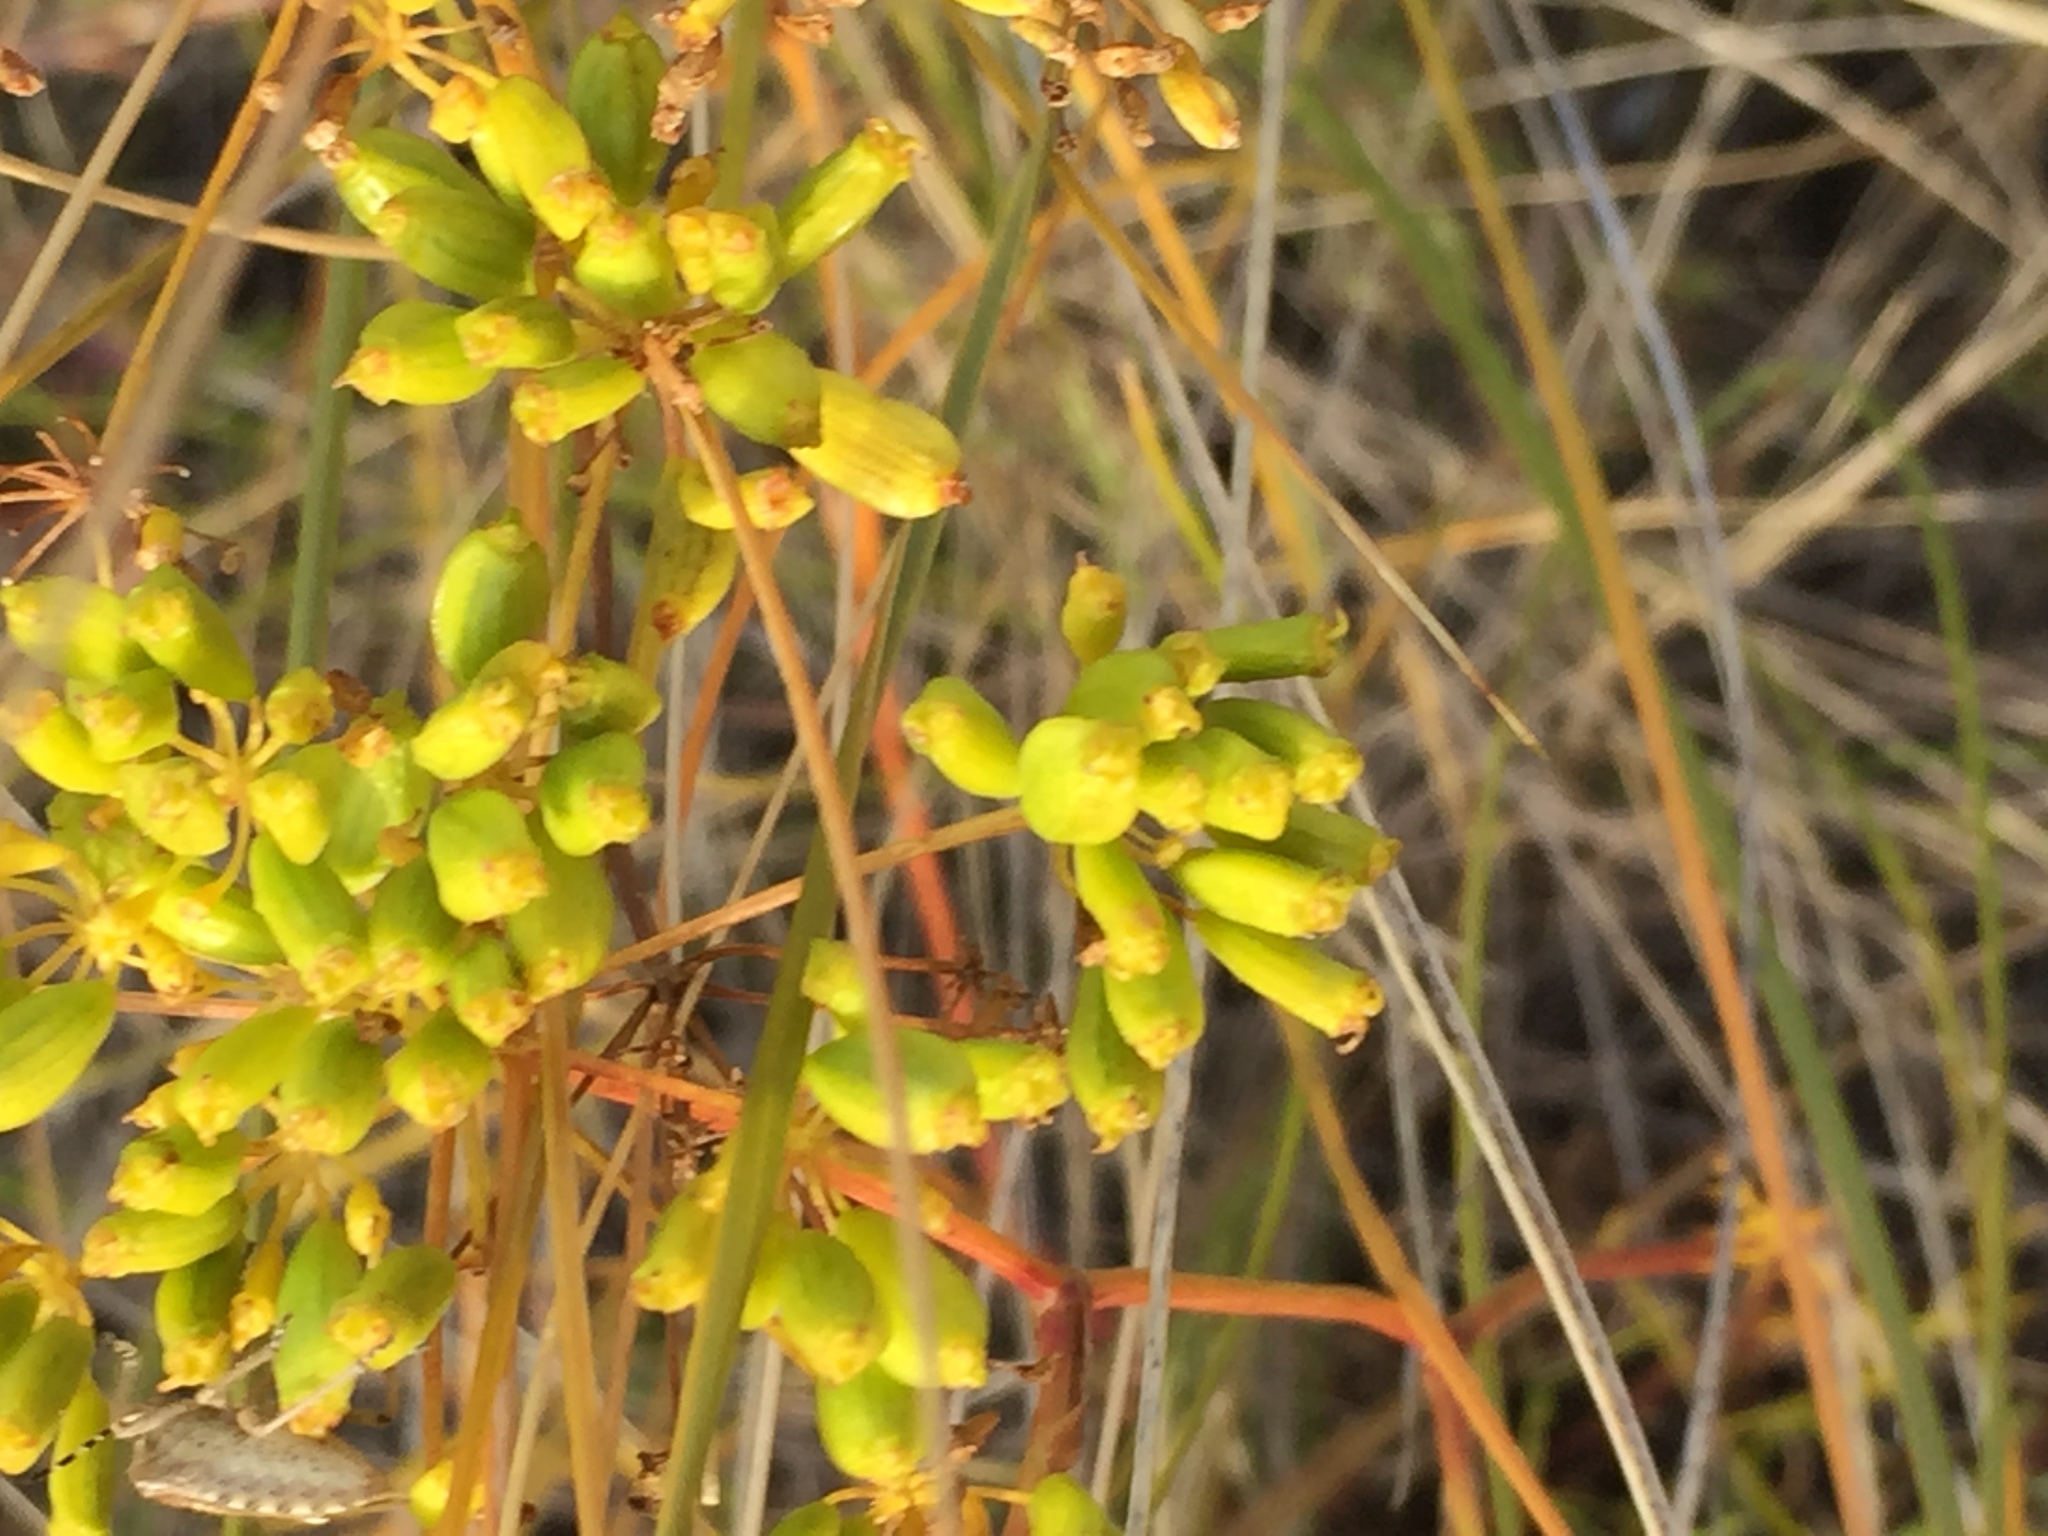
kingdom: Plantae
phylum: Tracheophyta
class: Magnoliopsida
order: Apiales
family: Apiaceae
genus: Peucedanum
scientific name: Peucedanum ruthenicum
